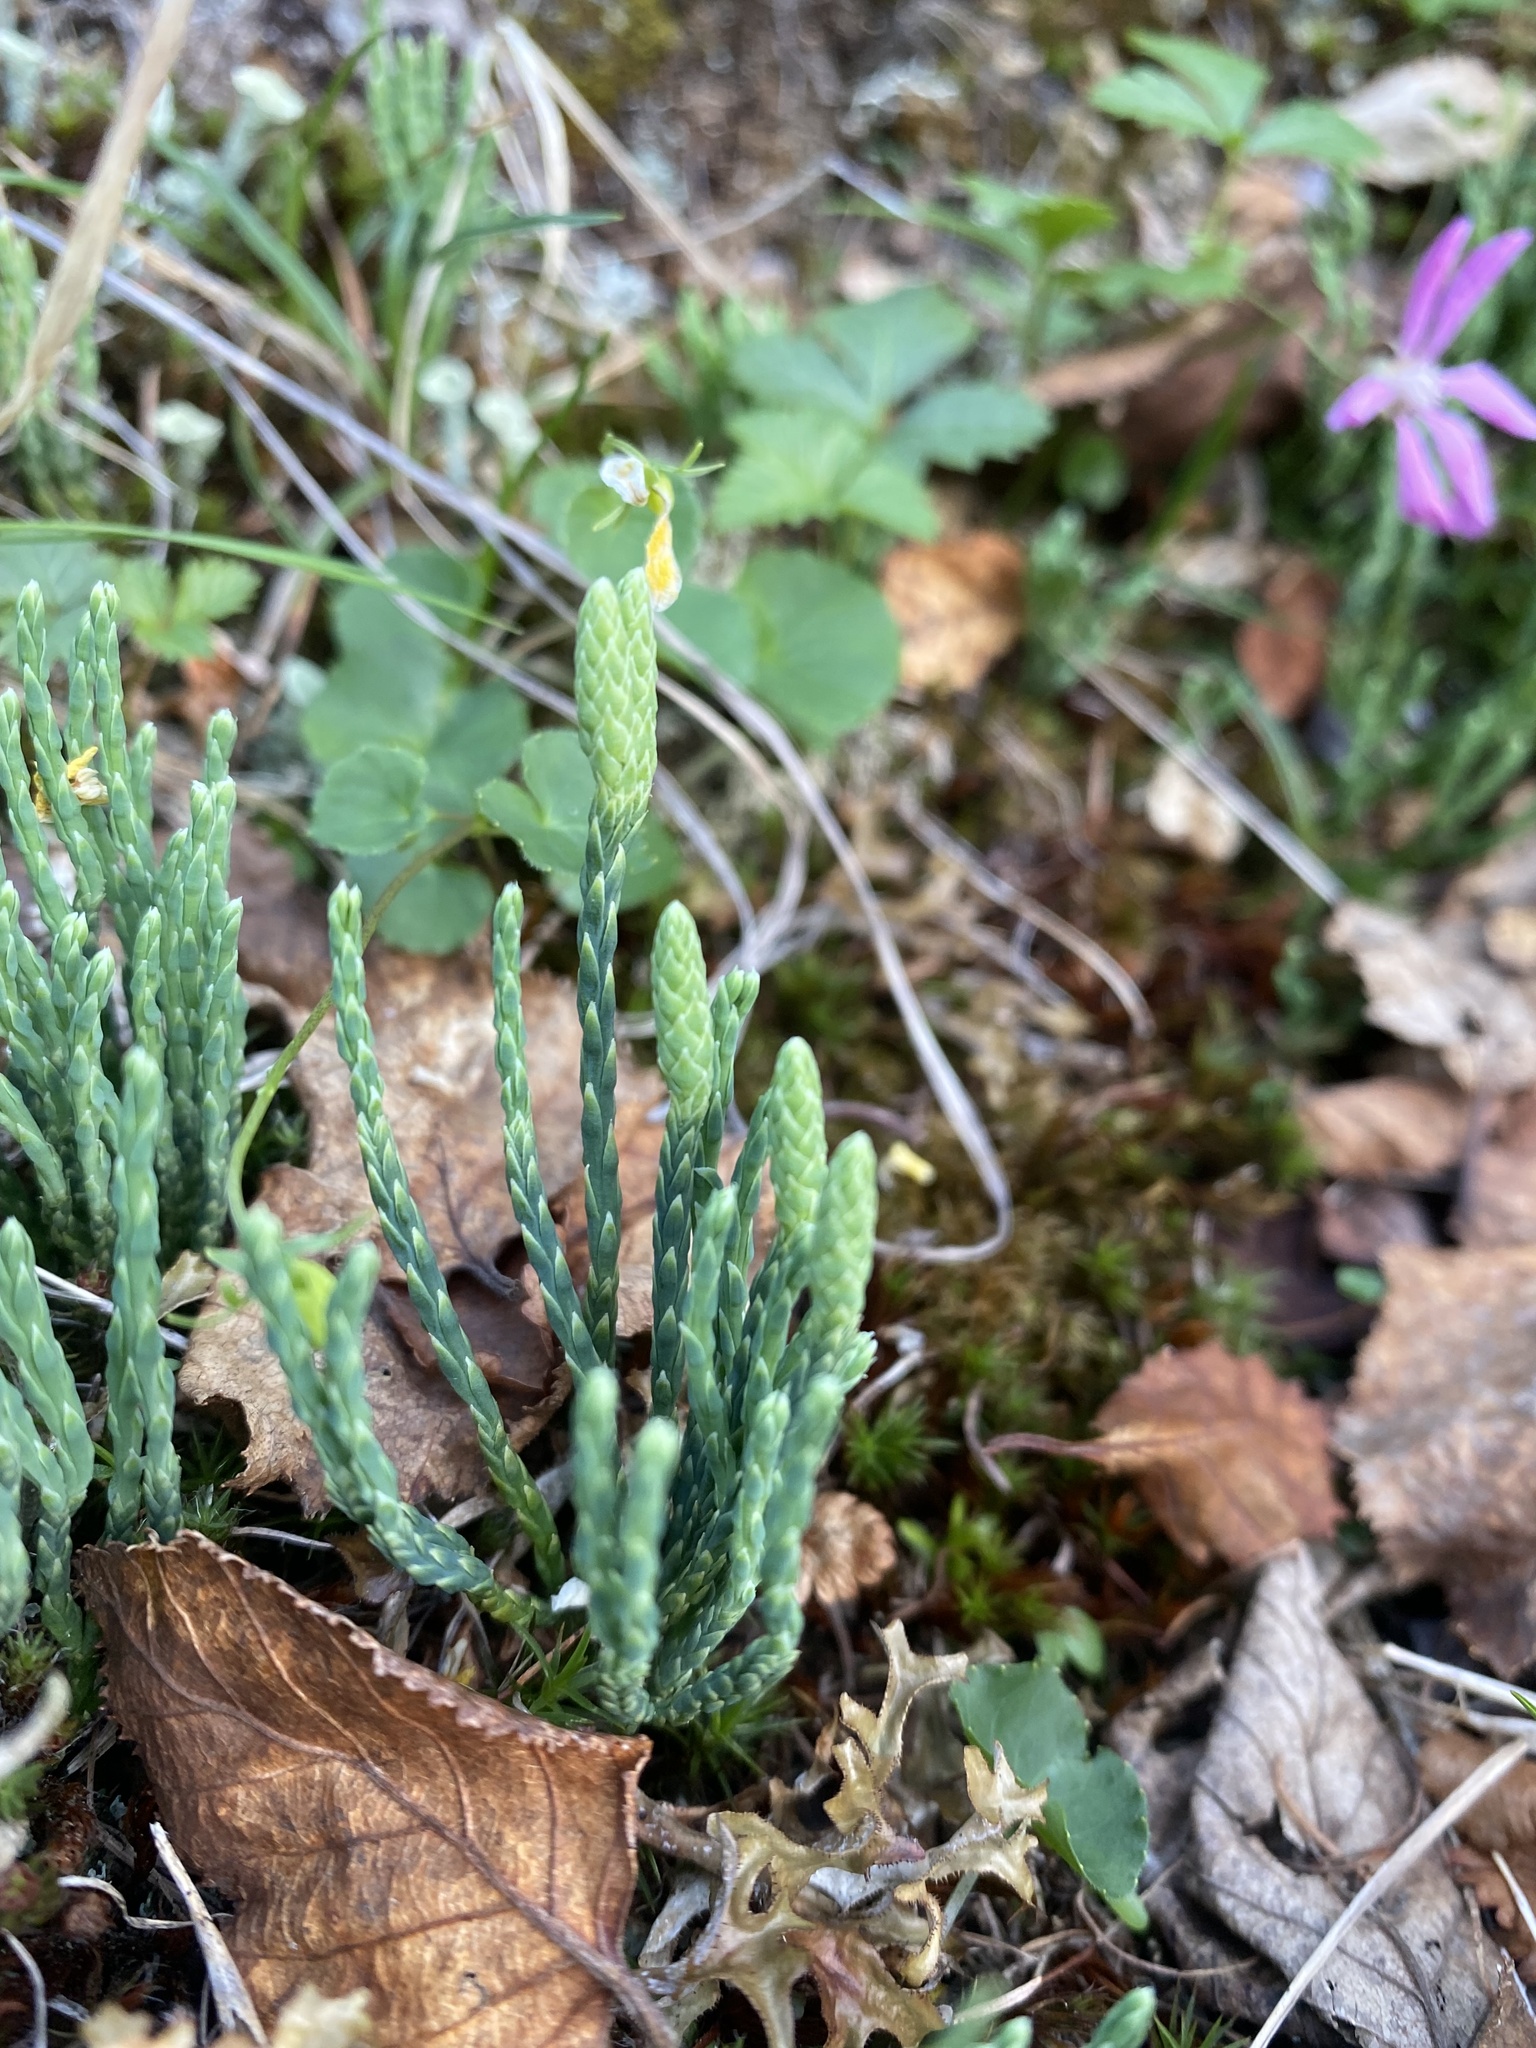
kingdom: Plantae
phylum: Tracheophyta
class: Lycopodiopsida
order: Lycopodiales
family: Lycopodiaceae
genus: Diphasiastrum
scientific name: Diphasiastrum alpinum
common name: Alpine clubmoss
